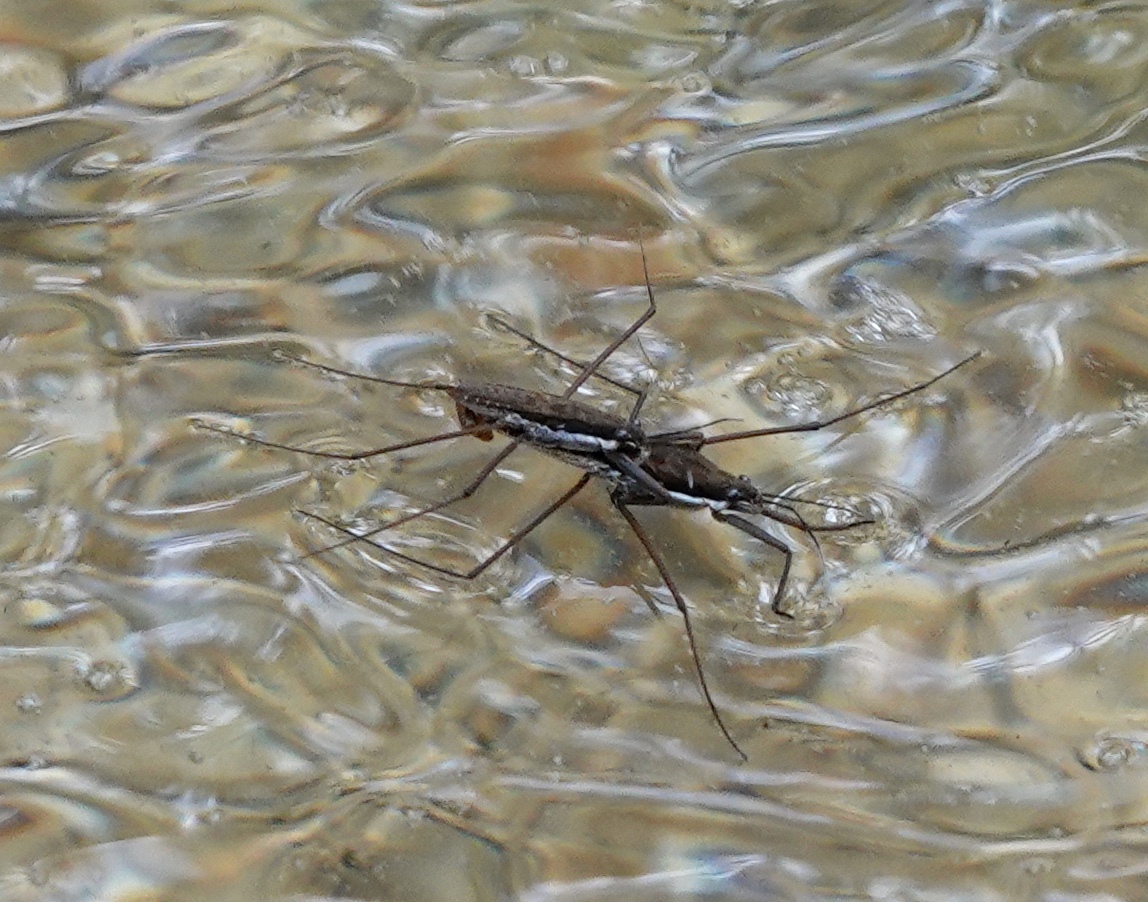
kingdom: Animalia
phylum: Arthropoda
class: Insecta
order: Hemiptera
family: Gerridae
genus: Aquarius
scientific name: Aquarius remigis
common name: Common water strider
